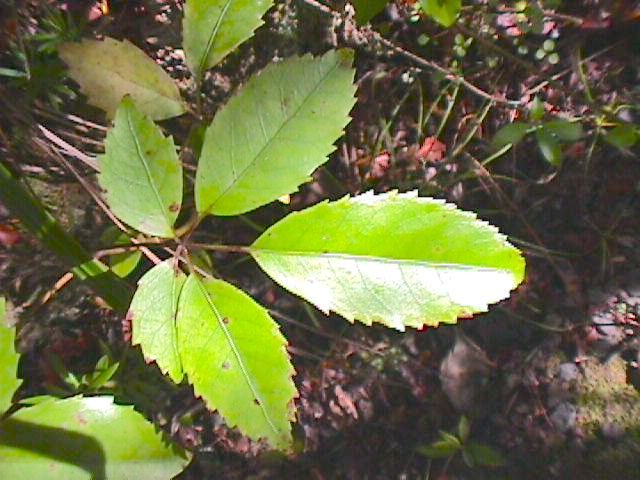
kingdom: Plantae
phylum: Tracheophyta
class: Magnoliopsida
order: Apiales
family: Araliaceae
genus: Neopanax
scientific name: Neopanax arboreus
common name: Five-fingers
